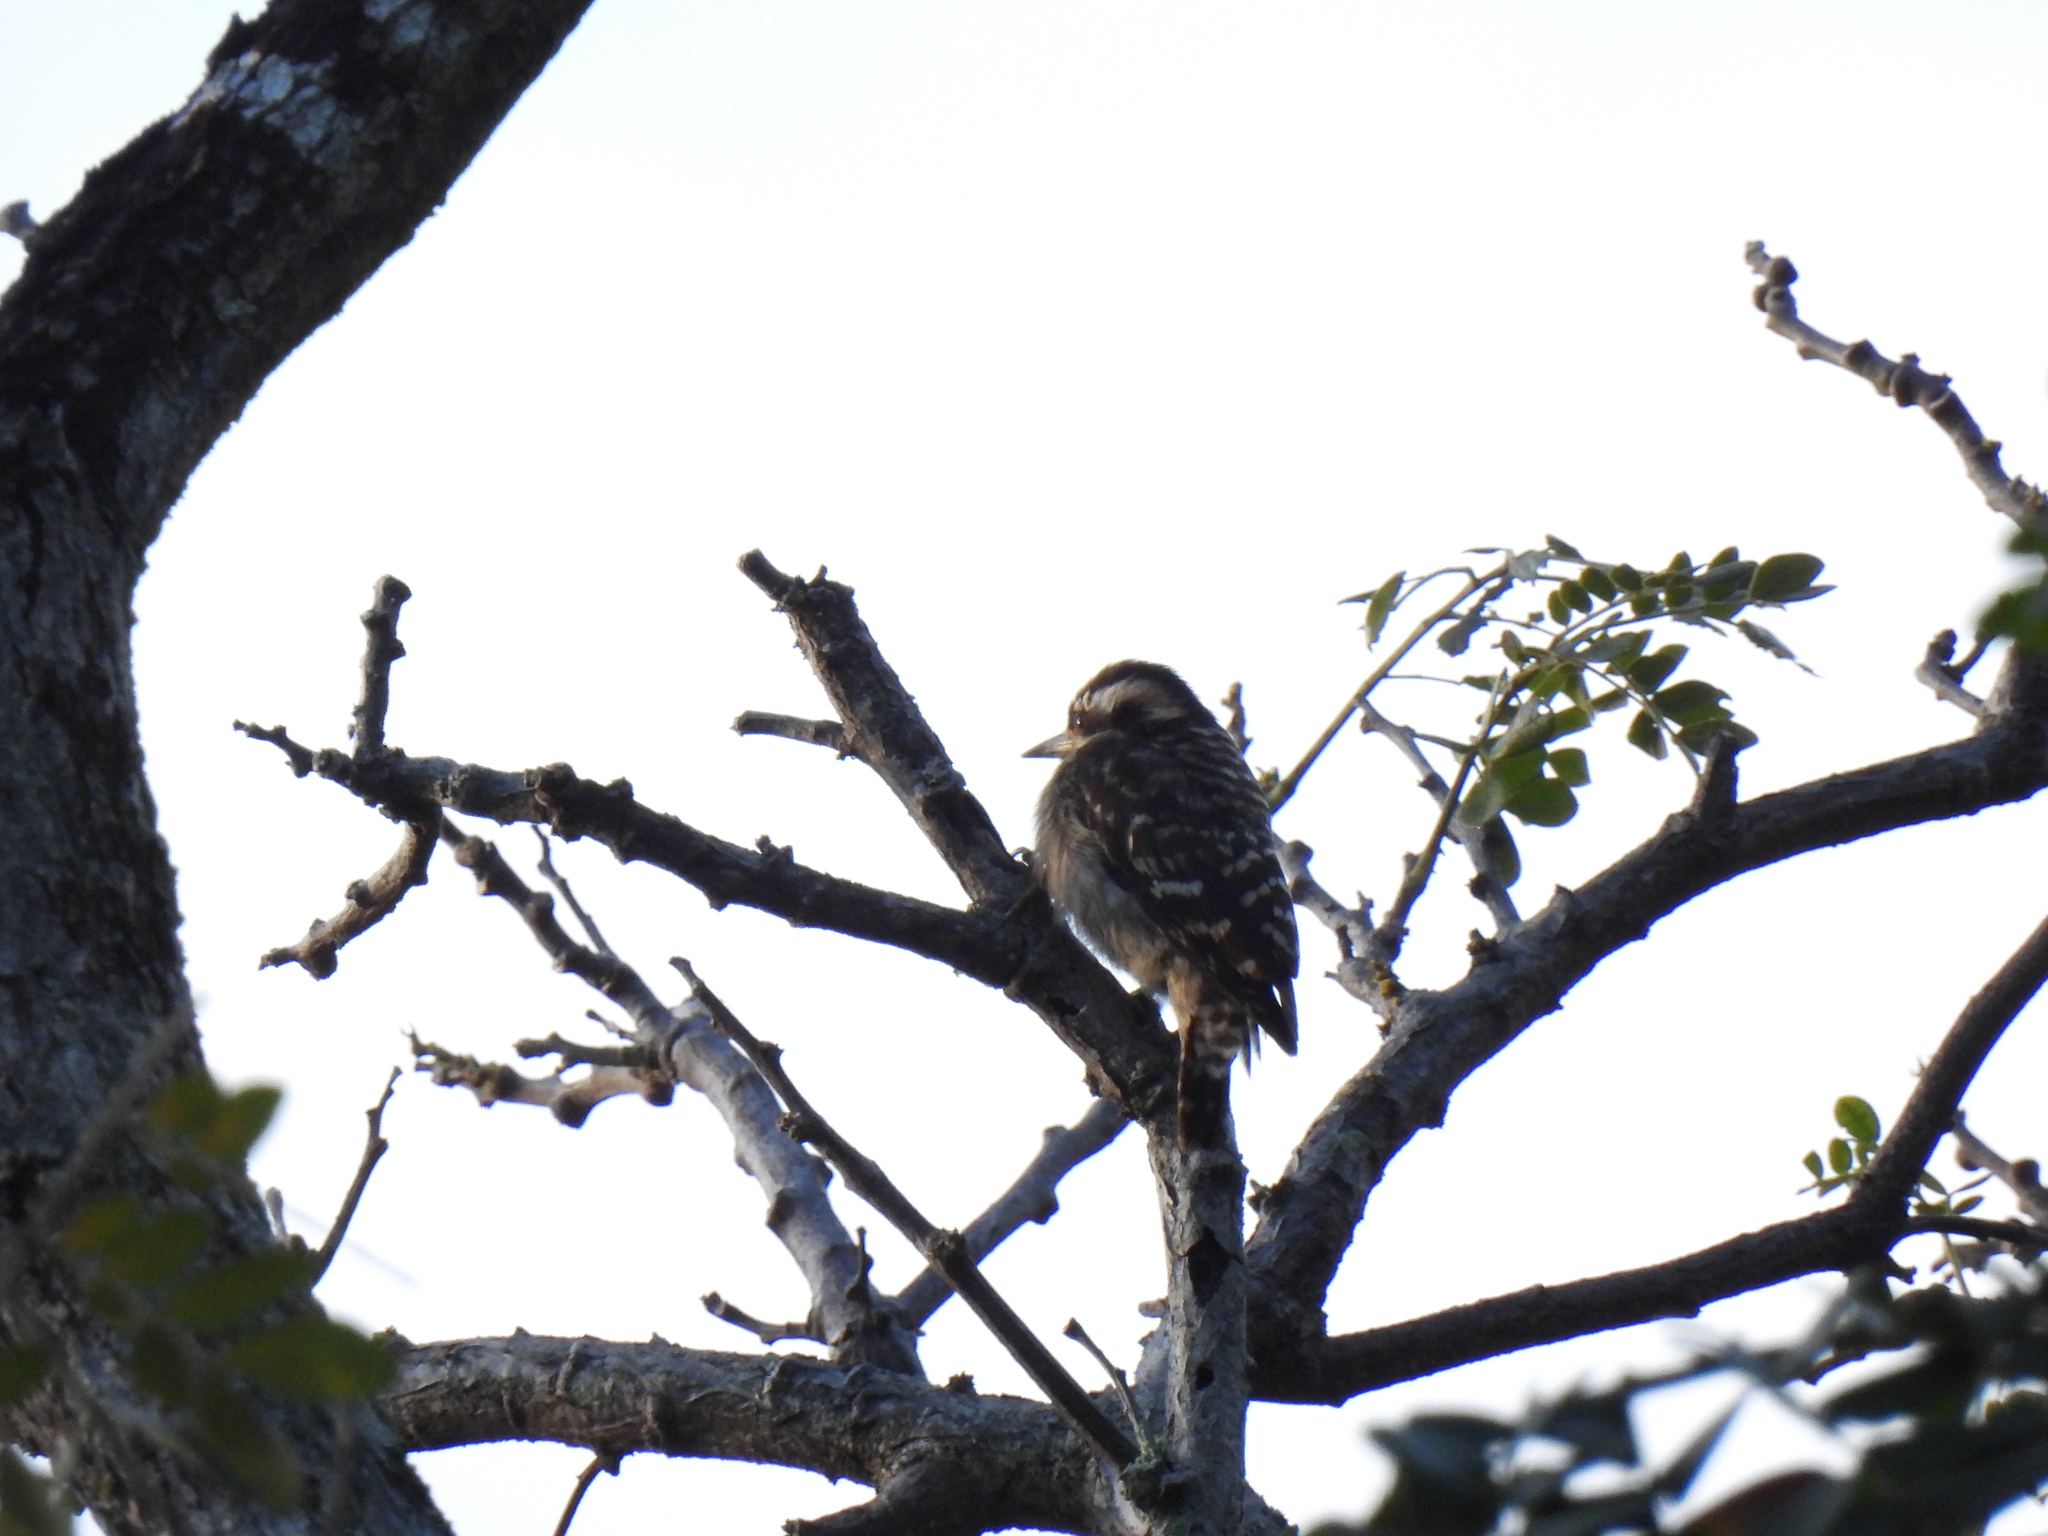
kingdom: Animalia
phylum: Chordata
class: Aves
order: Piciformes
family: Picidae
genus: Yungipicus
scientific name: Yungipicus moluccensis
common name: Sunda pygmy woodpecker
